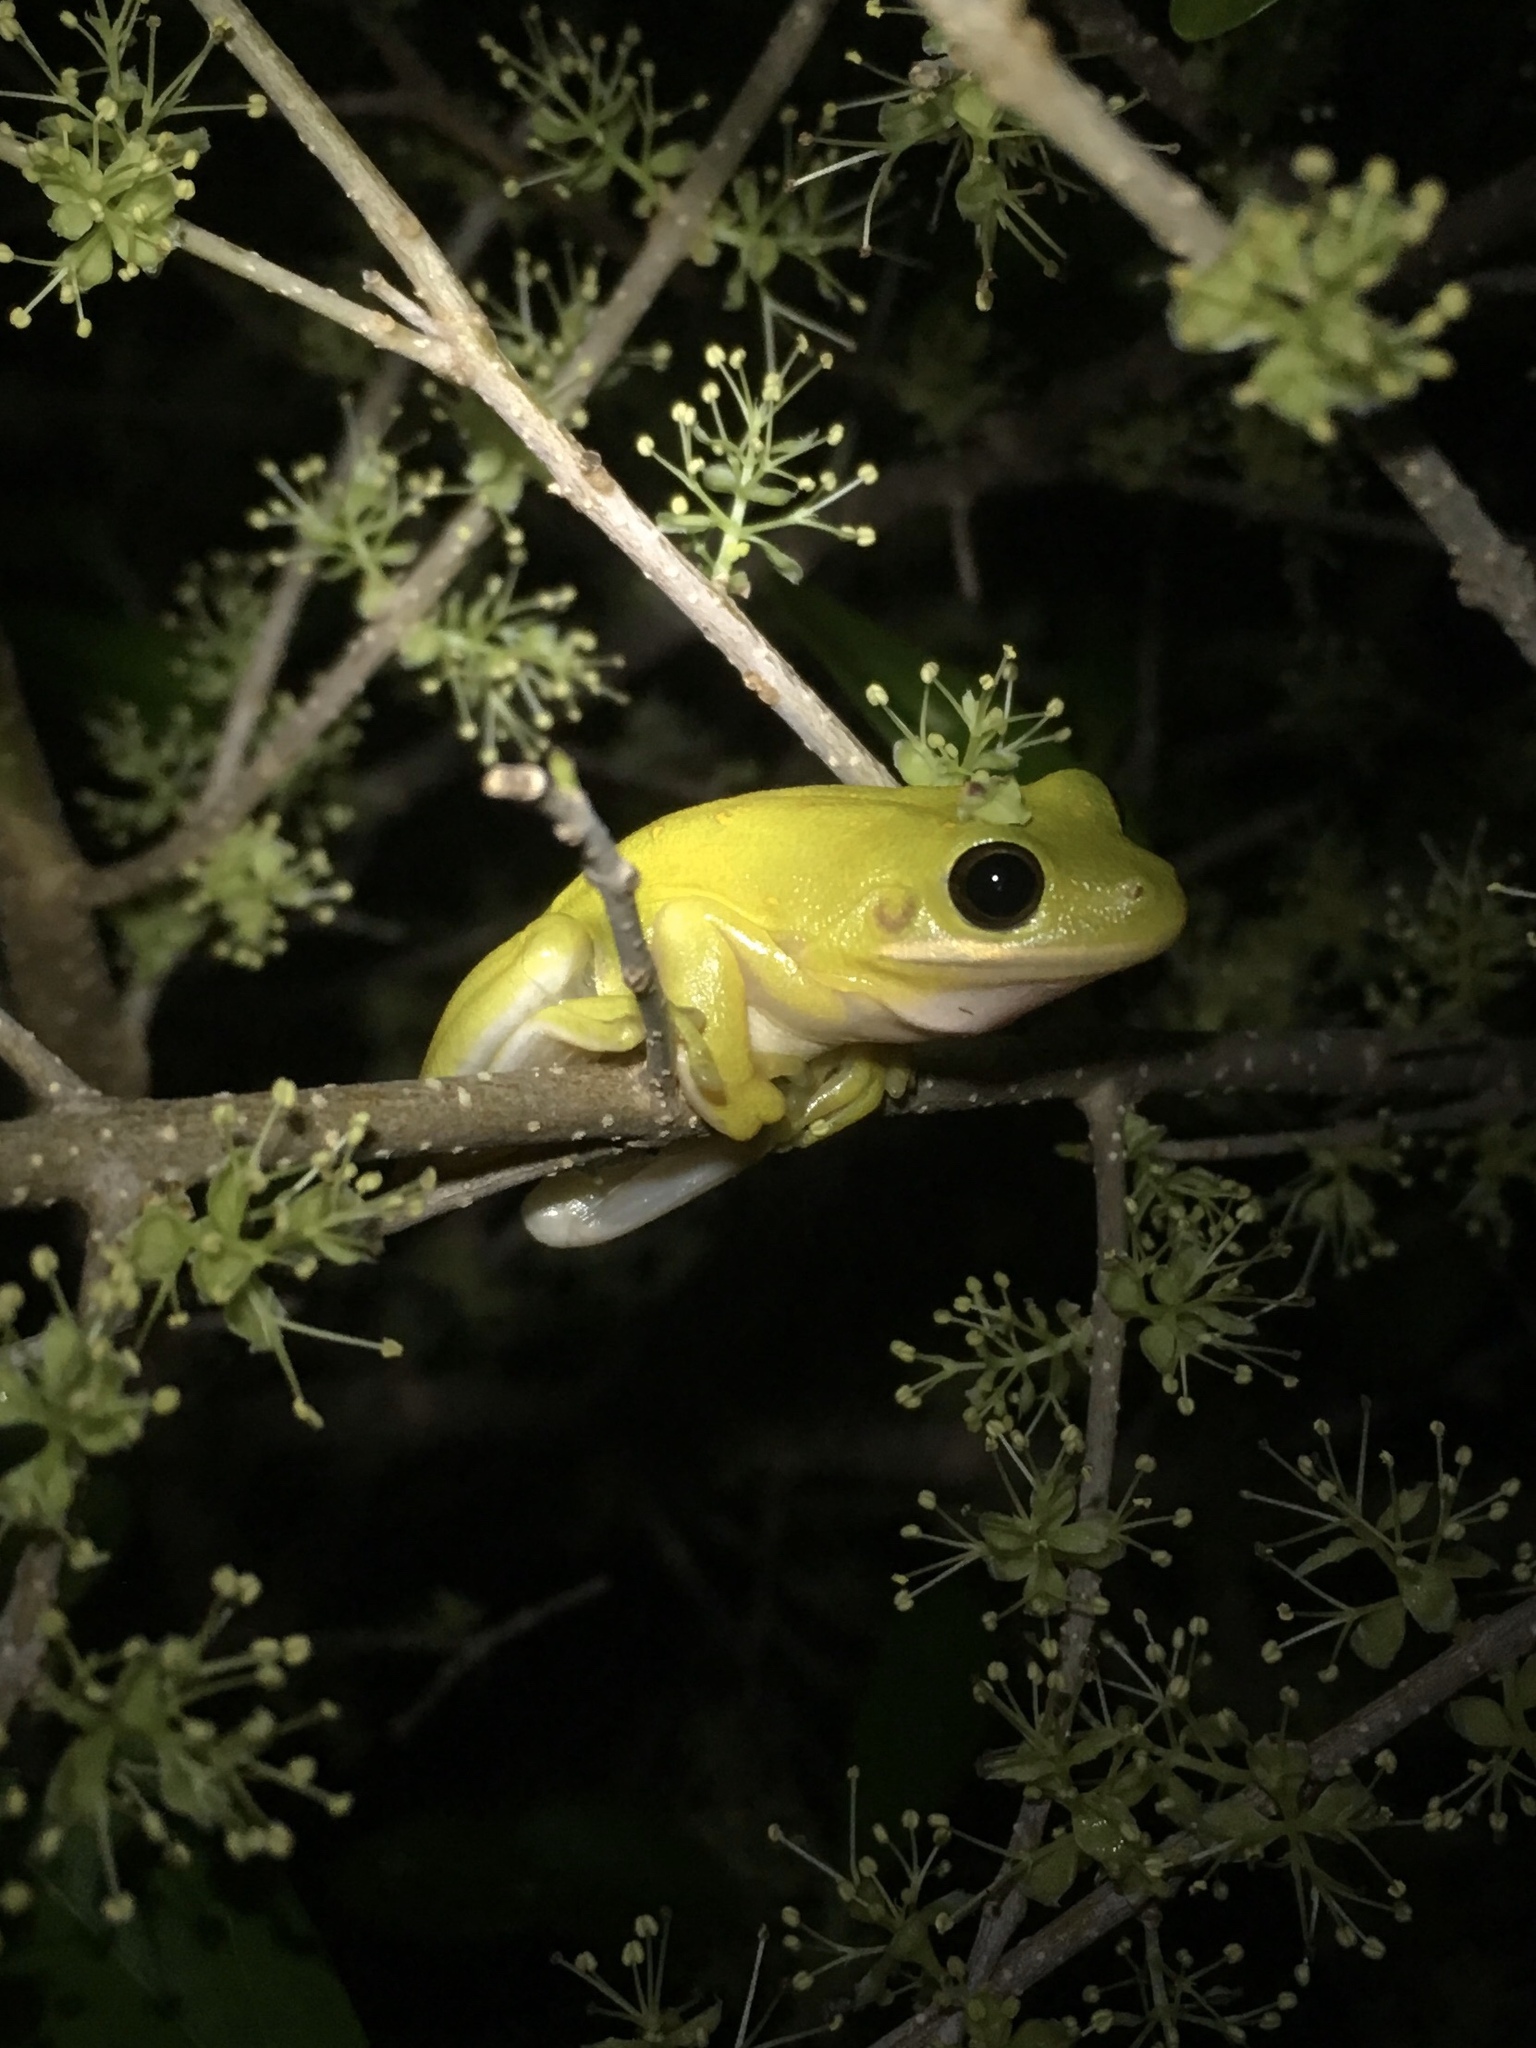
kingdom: Animalia
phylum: Chordata
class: Amphibia
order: Anura
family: Hylidae
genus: Dryophytes
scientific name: Dryophytes cinereus
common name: Green treefrog
